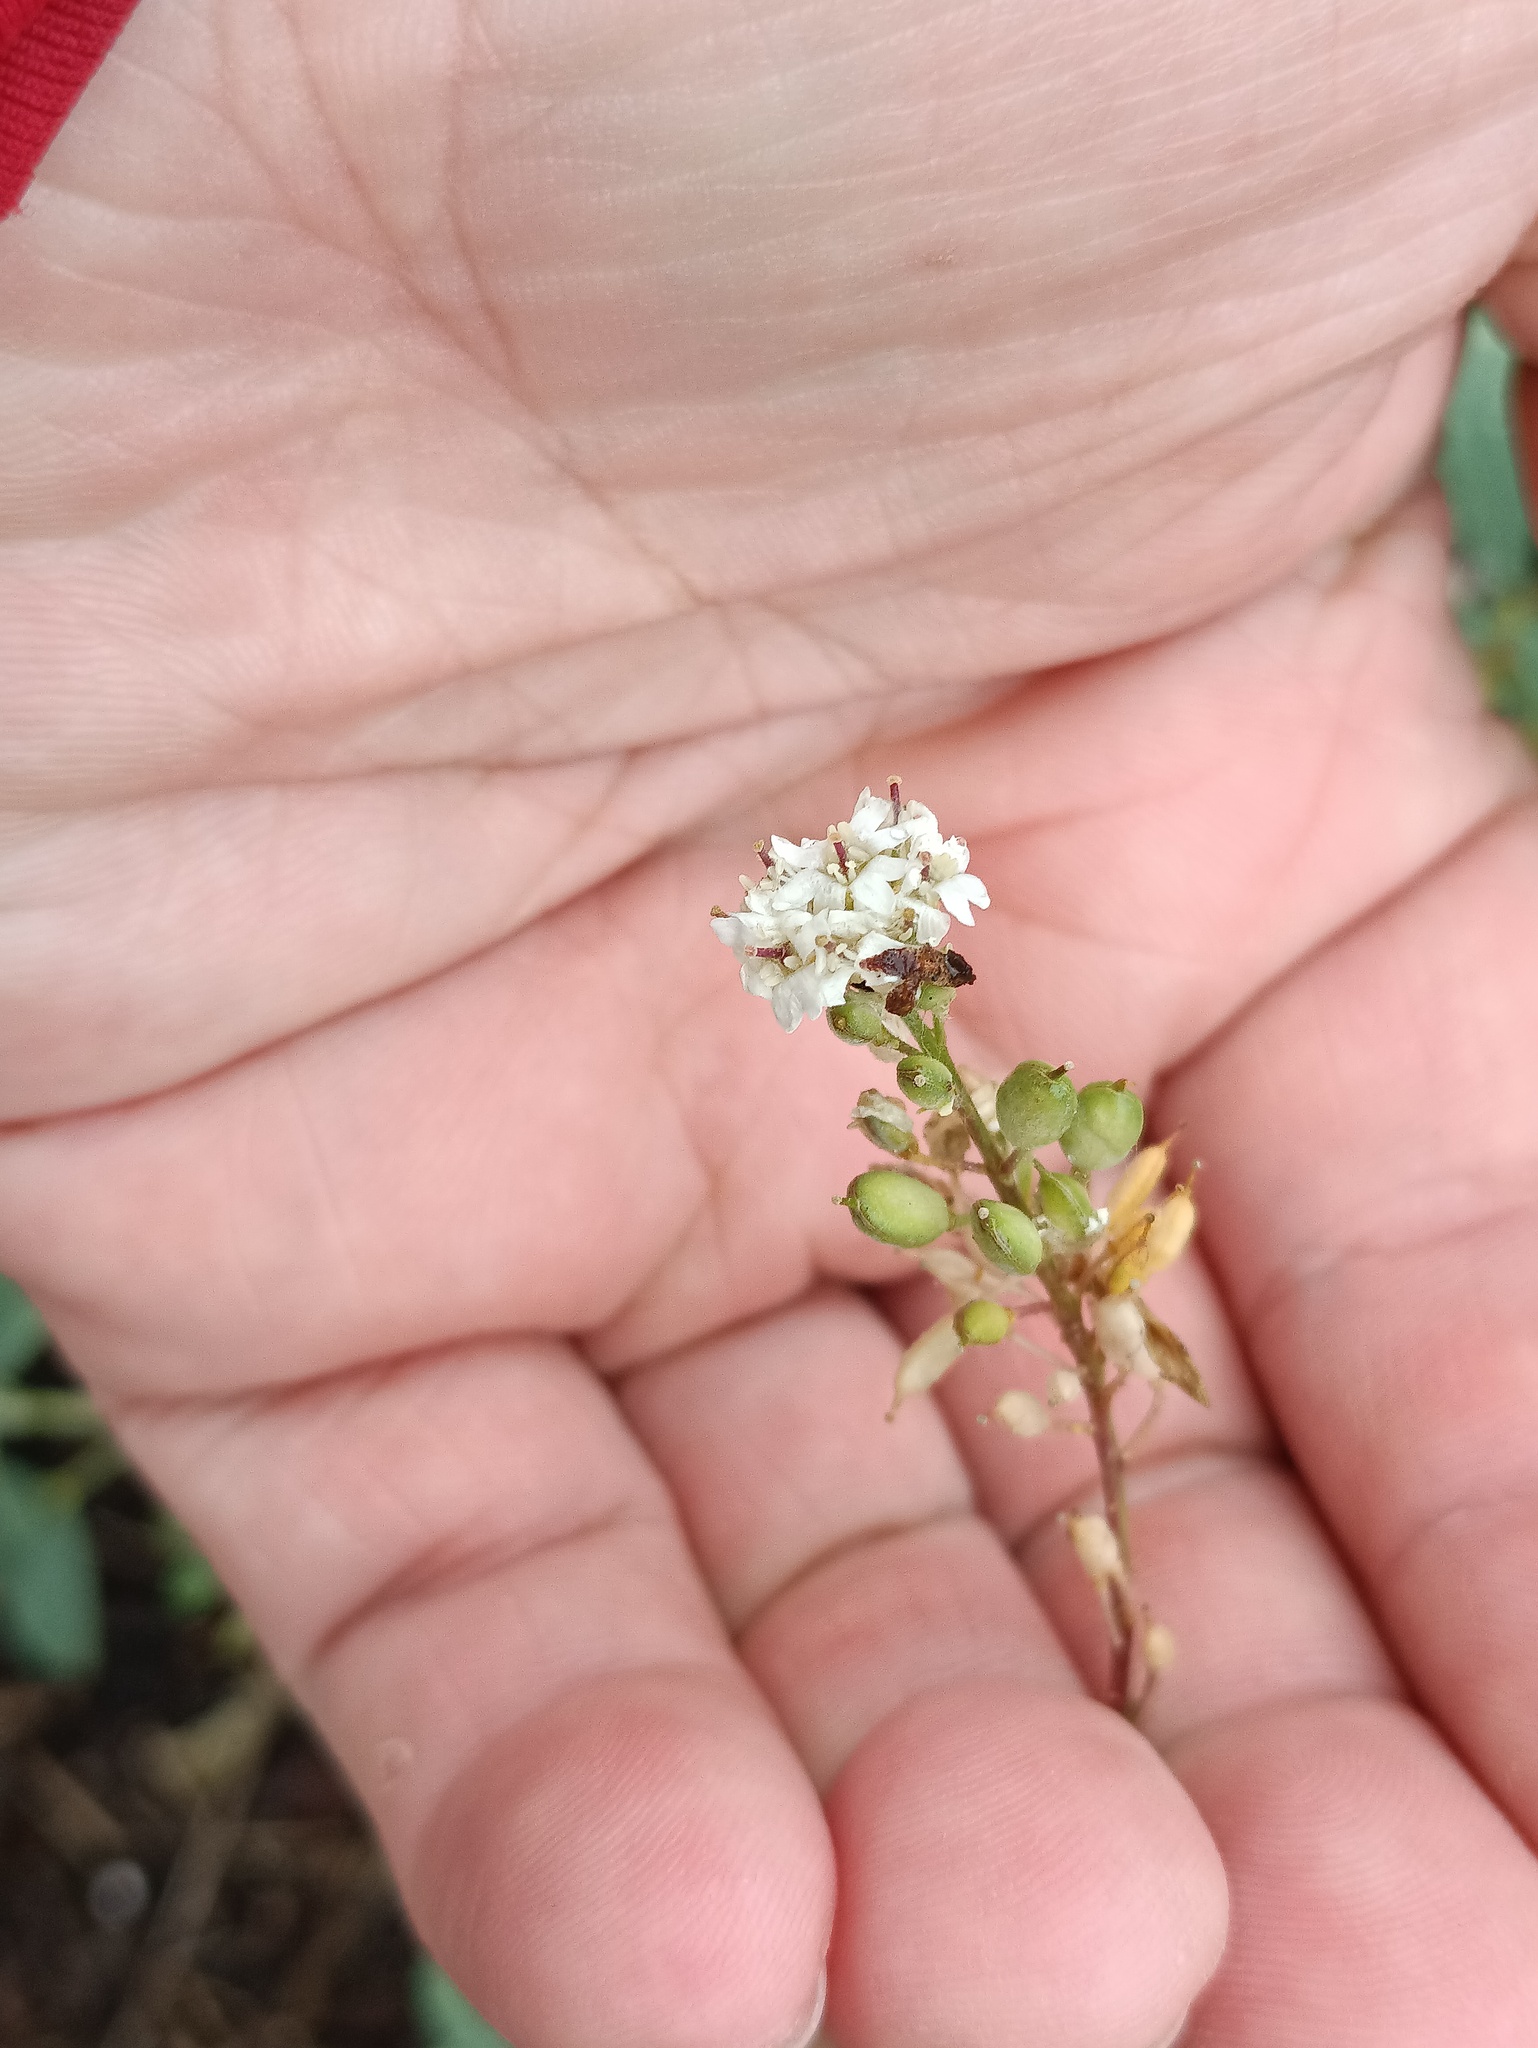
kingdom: Plantae
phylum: Tracheophyta
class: Magnoliopsida
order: Brassicales
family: Brassicaceae
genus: Berteroa
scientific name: Berteroa incana
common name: Hoary alison
